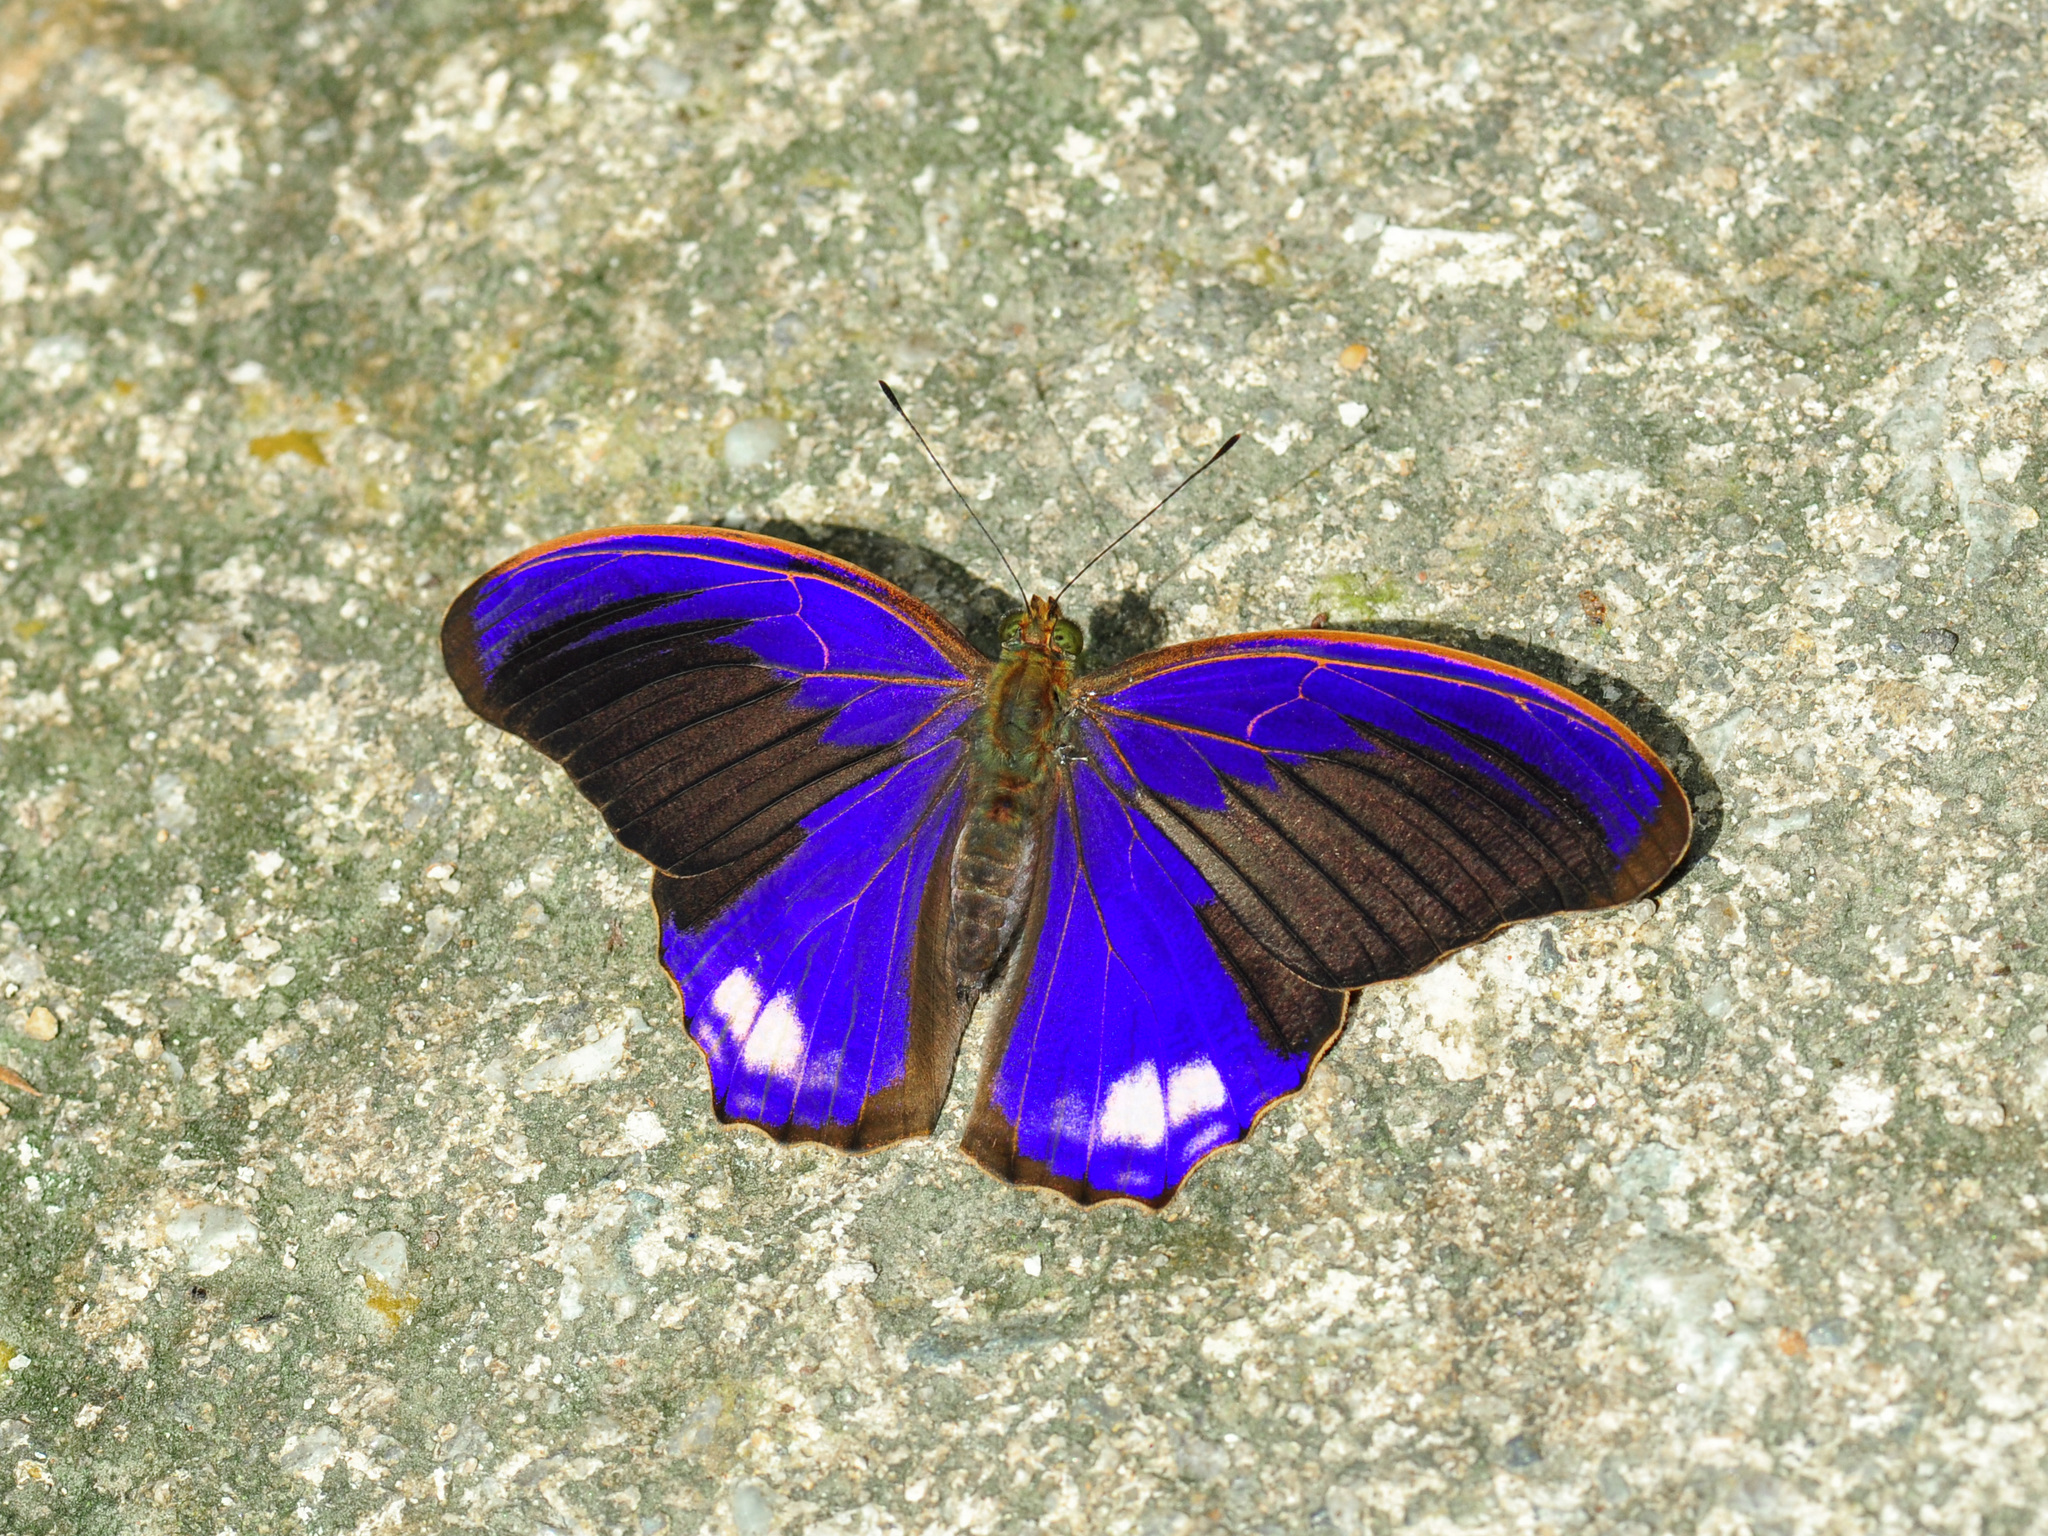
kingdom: Animalia
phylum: Arthropoda
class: Insecta
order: Lepidoptera
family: Nymphalidae
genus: Terinos
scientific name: Terinos terpander
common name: Royal assyrian
